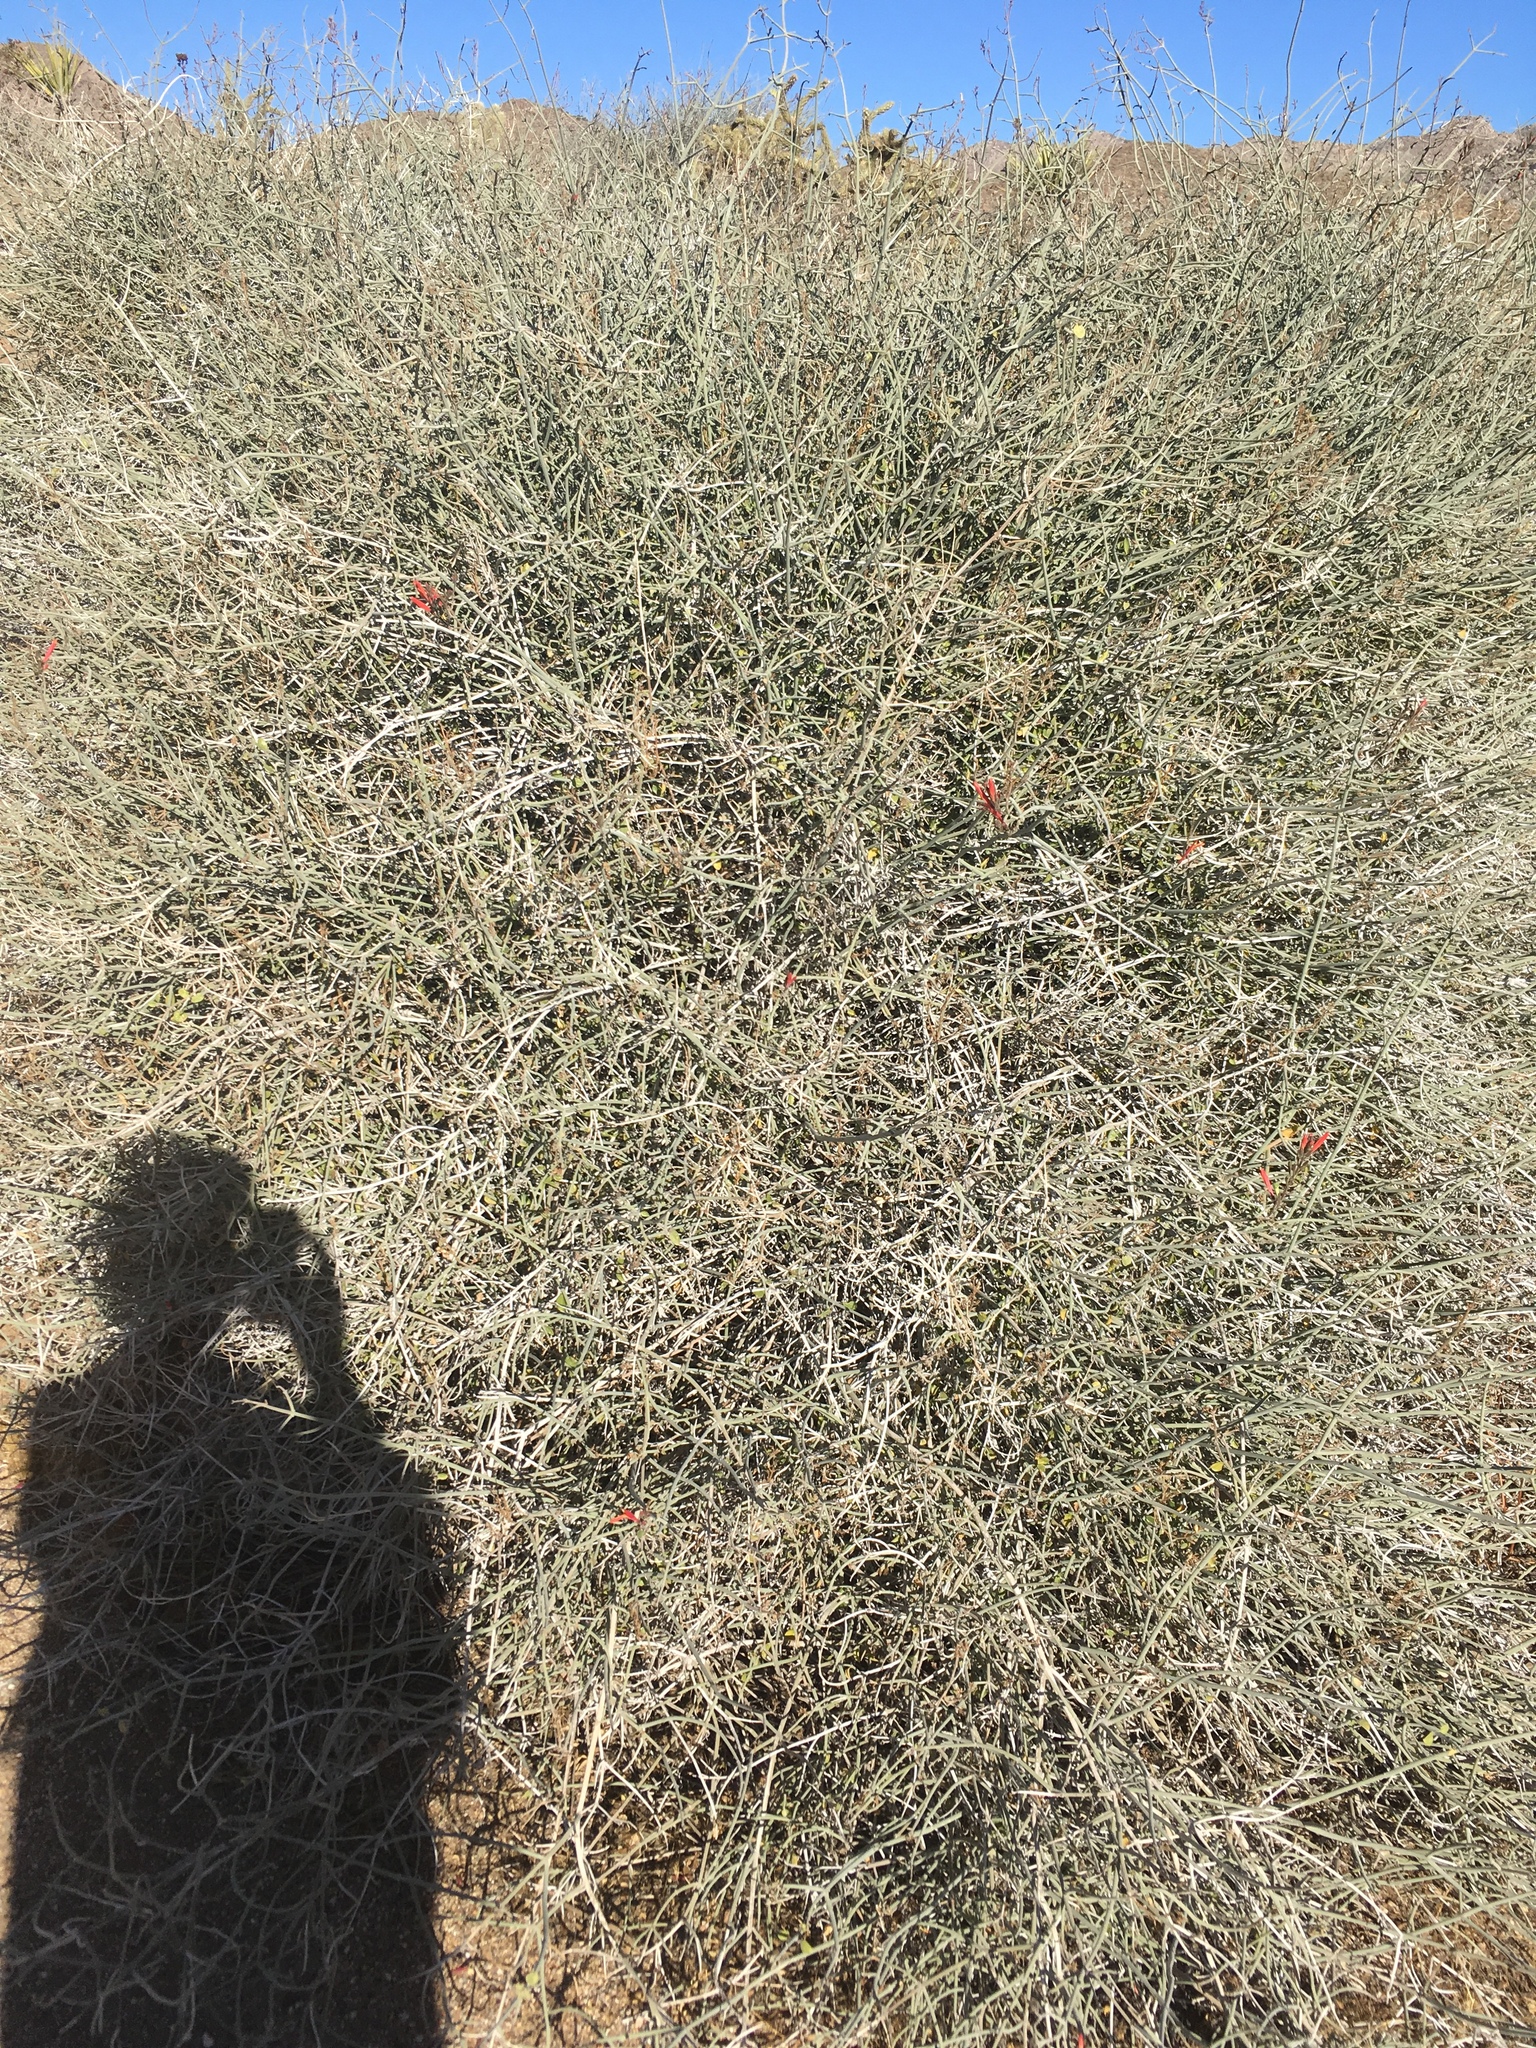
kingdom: Plantae
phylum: Tracheophyta
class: Magnoliopsida
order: Lamiales
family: Acanthaceae
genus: Justicia
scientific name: Justicia californica
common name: Chuparosa-honeysuckle
